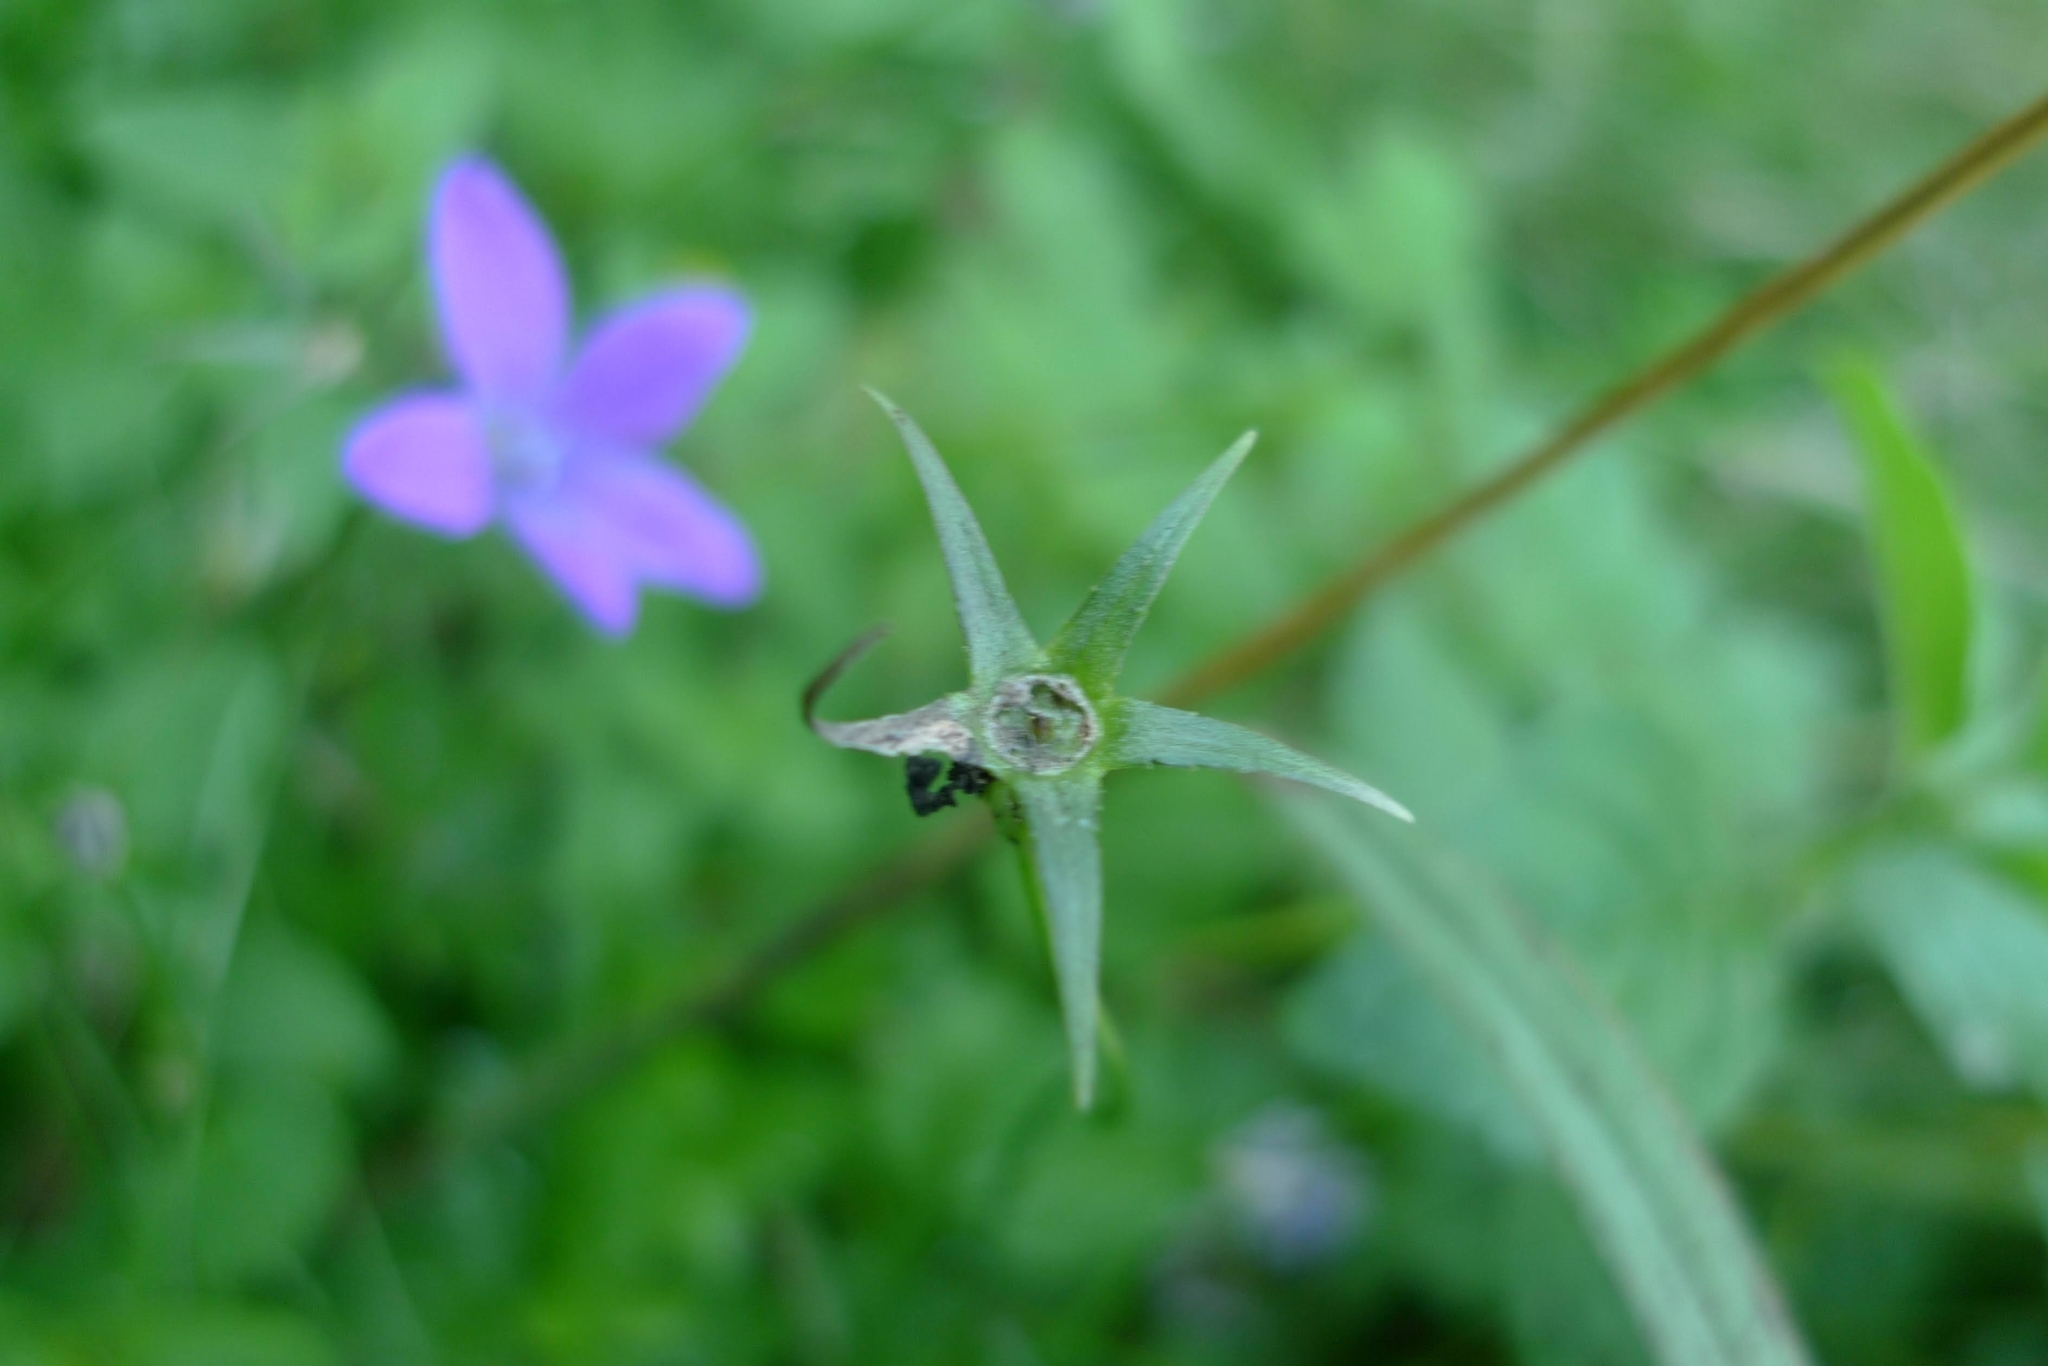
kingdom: Plantae
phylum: Tracheophyta
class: Magnoliopsida
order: Asterales
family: Campanulaceae
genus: Campanula
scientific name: Campanula patula
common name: Spreading bellflower
